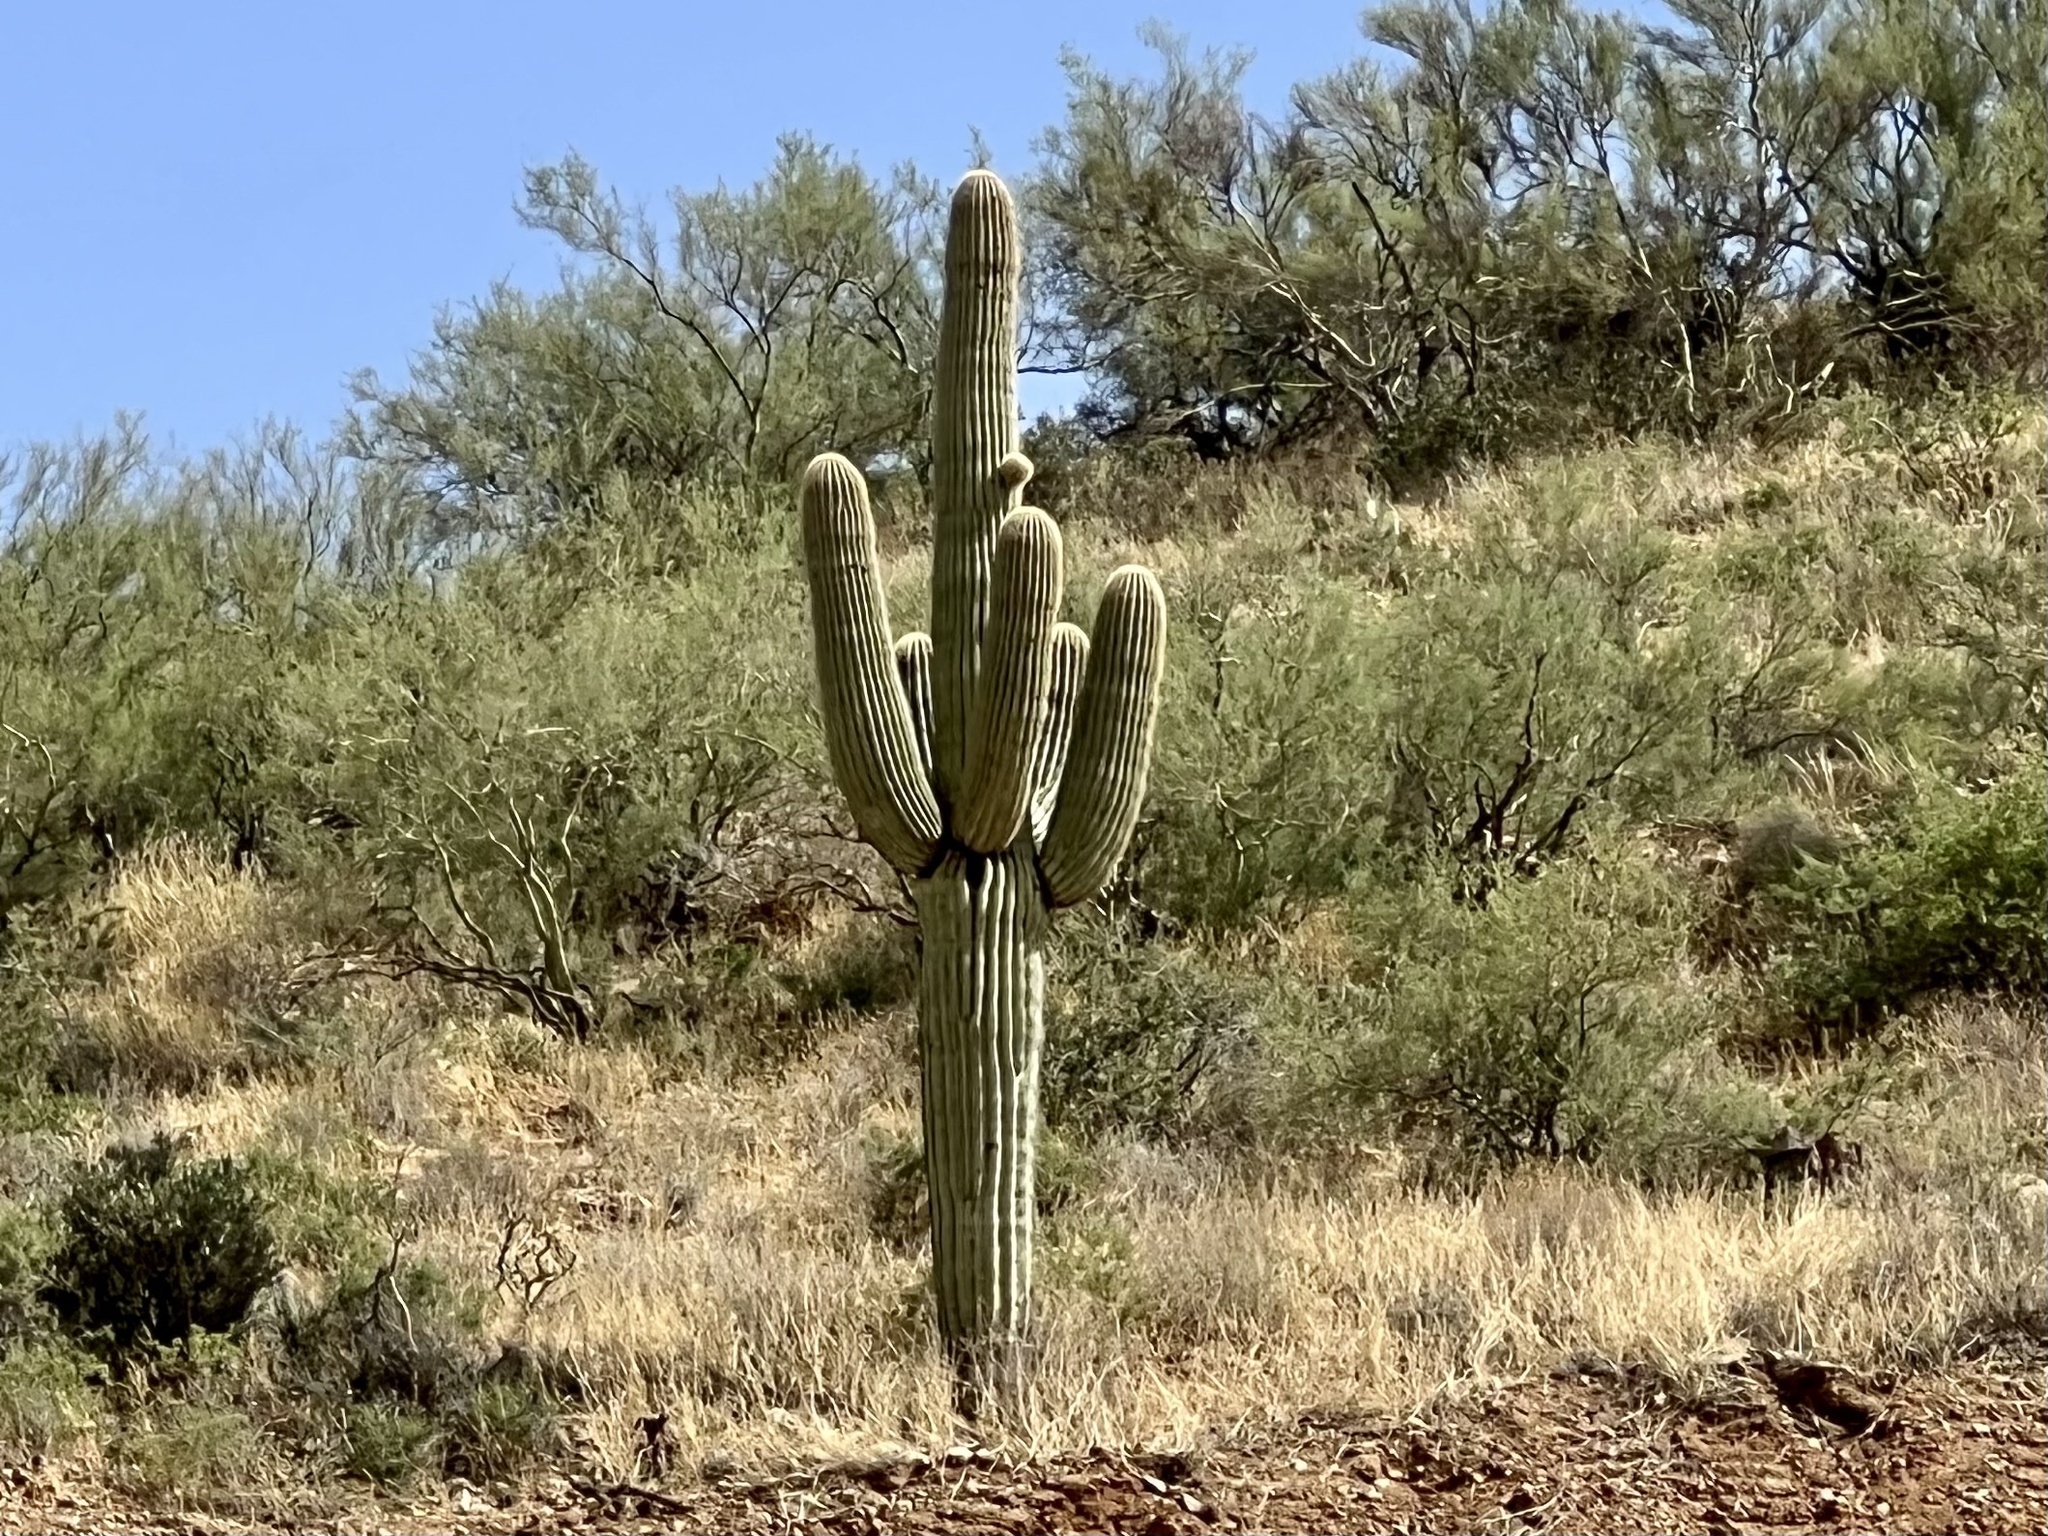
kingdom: Plantae
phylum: Tracheophyta
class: Magnoliopsida
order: Caryophyllales
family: Cactaceae
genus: Carnegiea
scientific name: Carnegiea gigantea
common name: Saguaro
